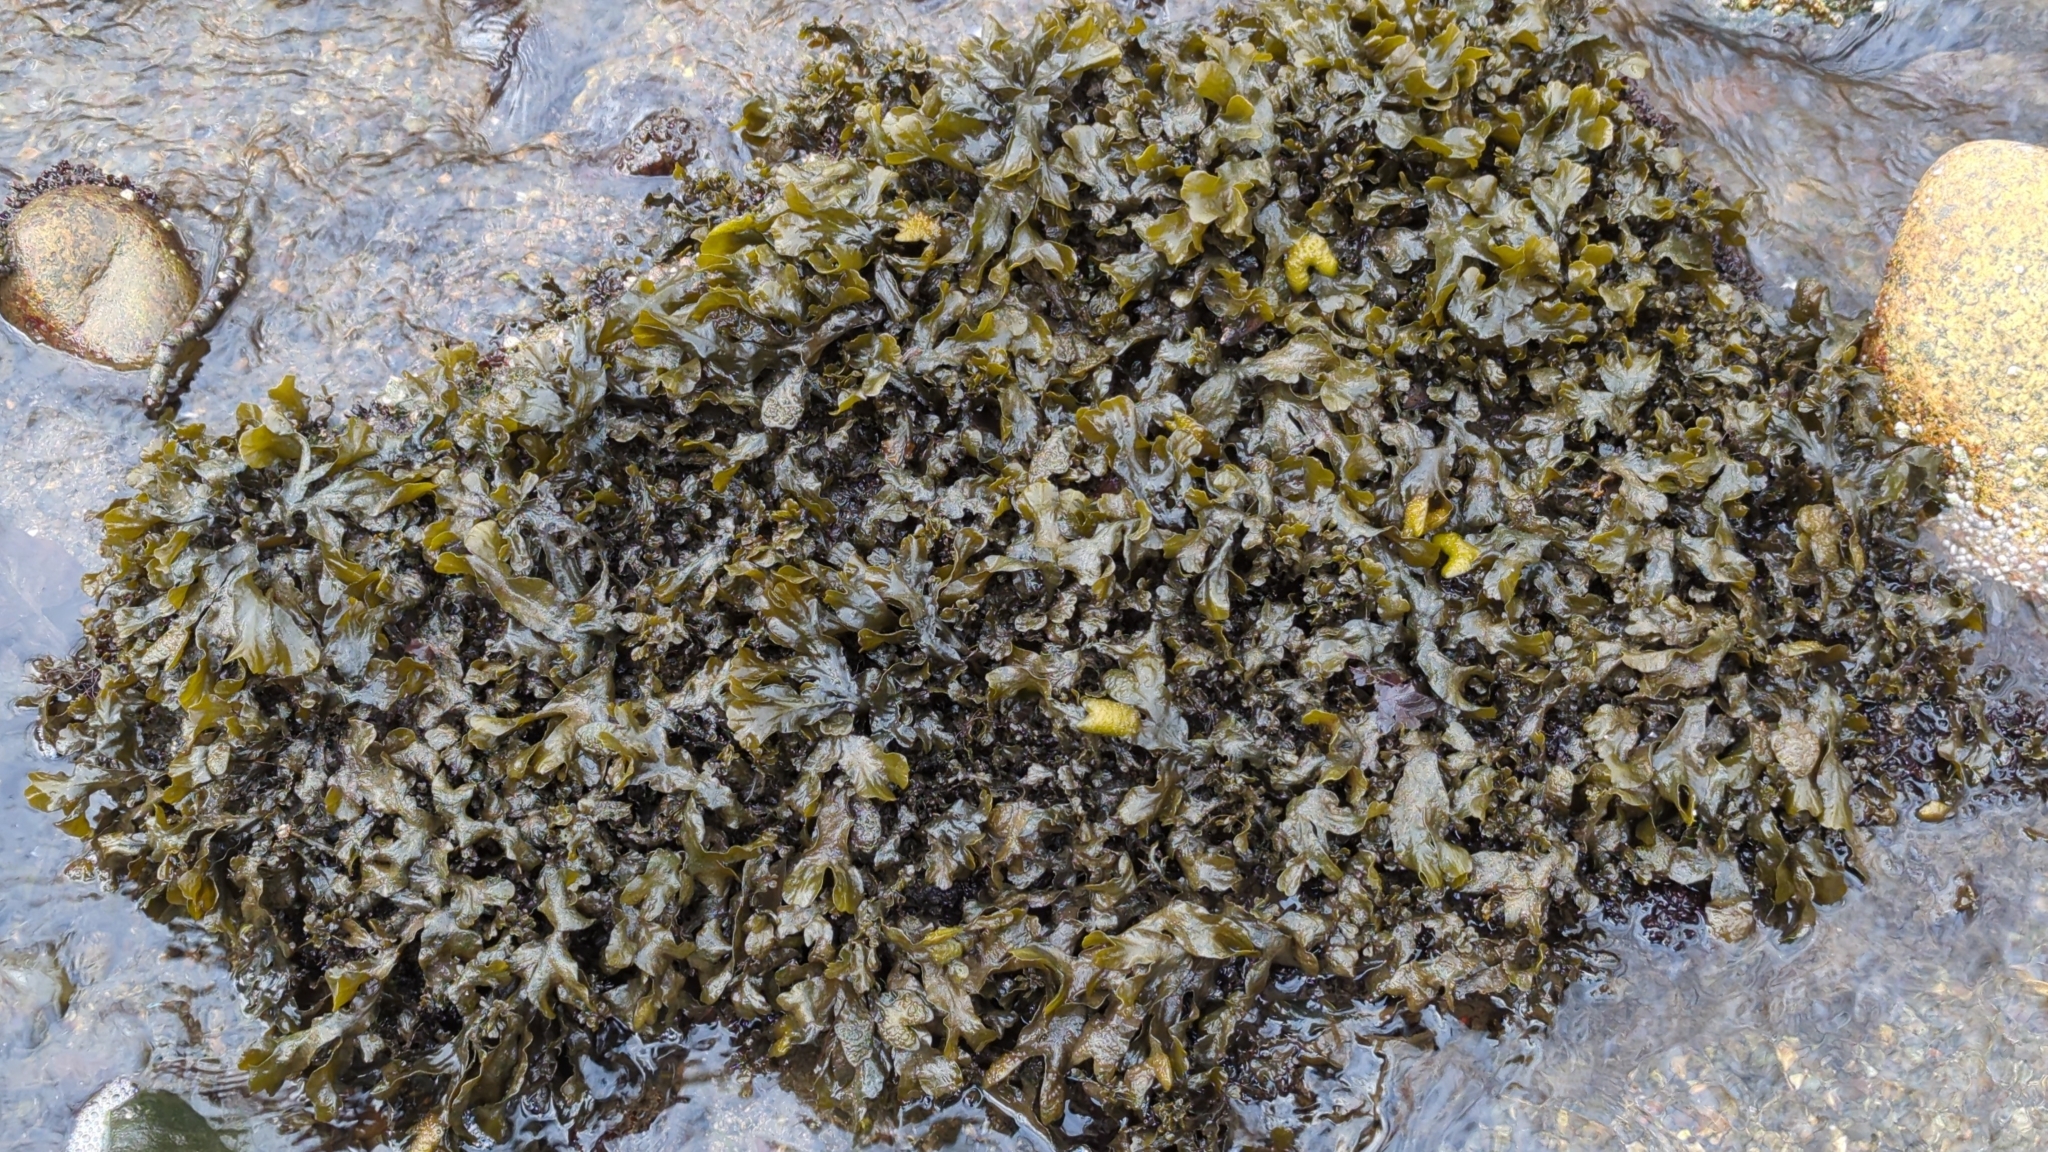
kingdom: Chromista
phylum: Ochrophyta
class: Phaeophyceae
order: Fucales
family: Fucaceae
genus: Fucus
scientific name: Fucus distichus
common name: Rockweed
